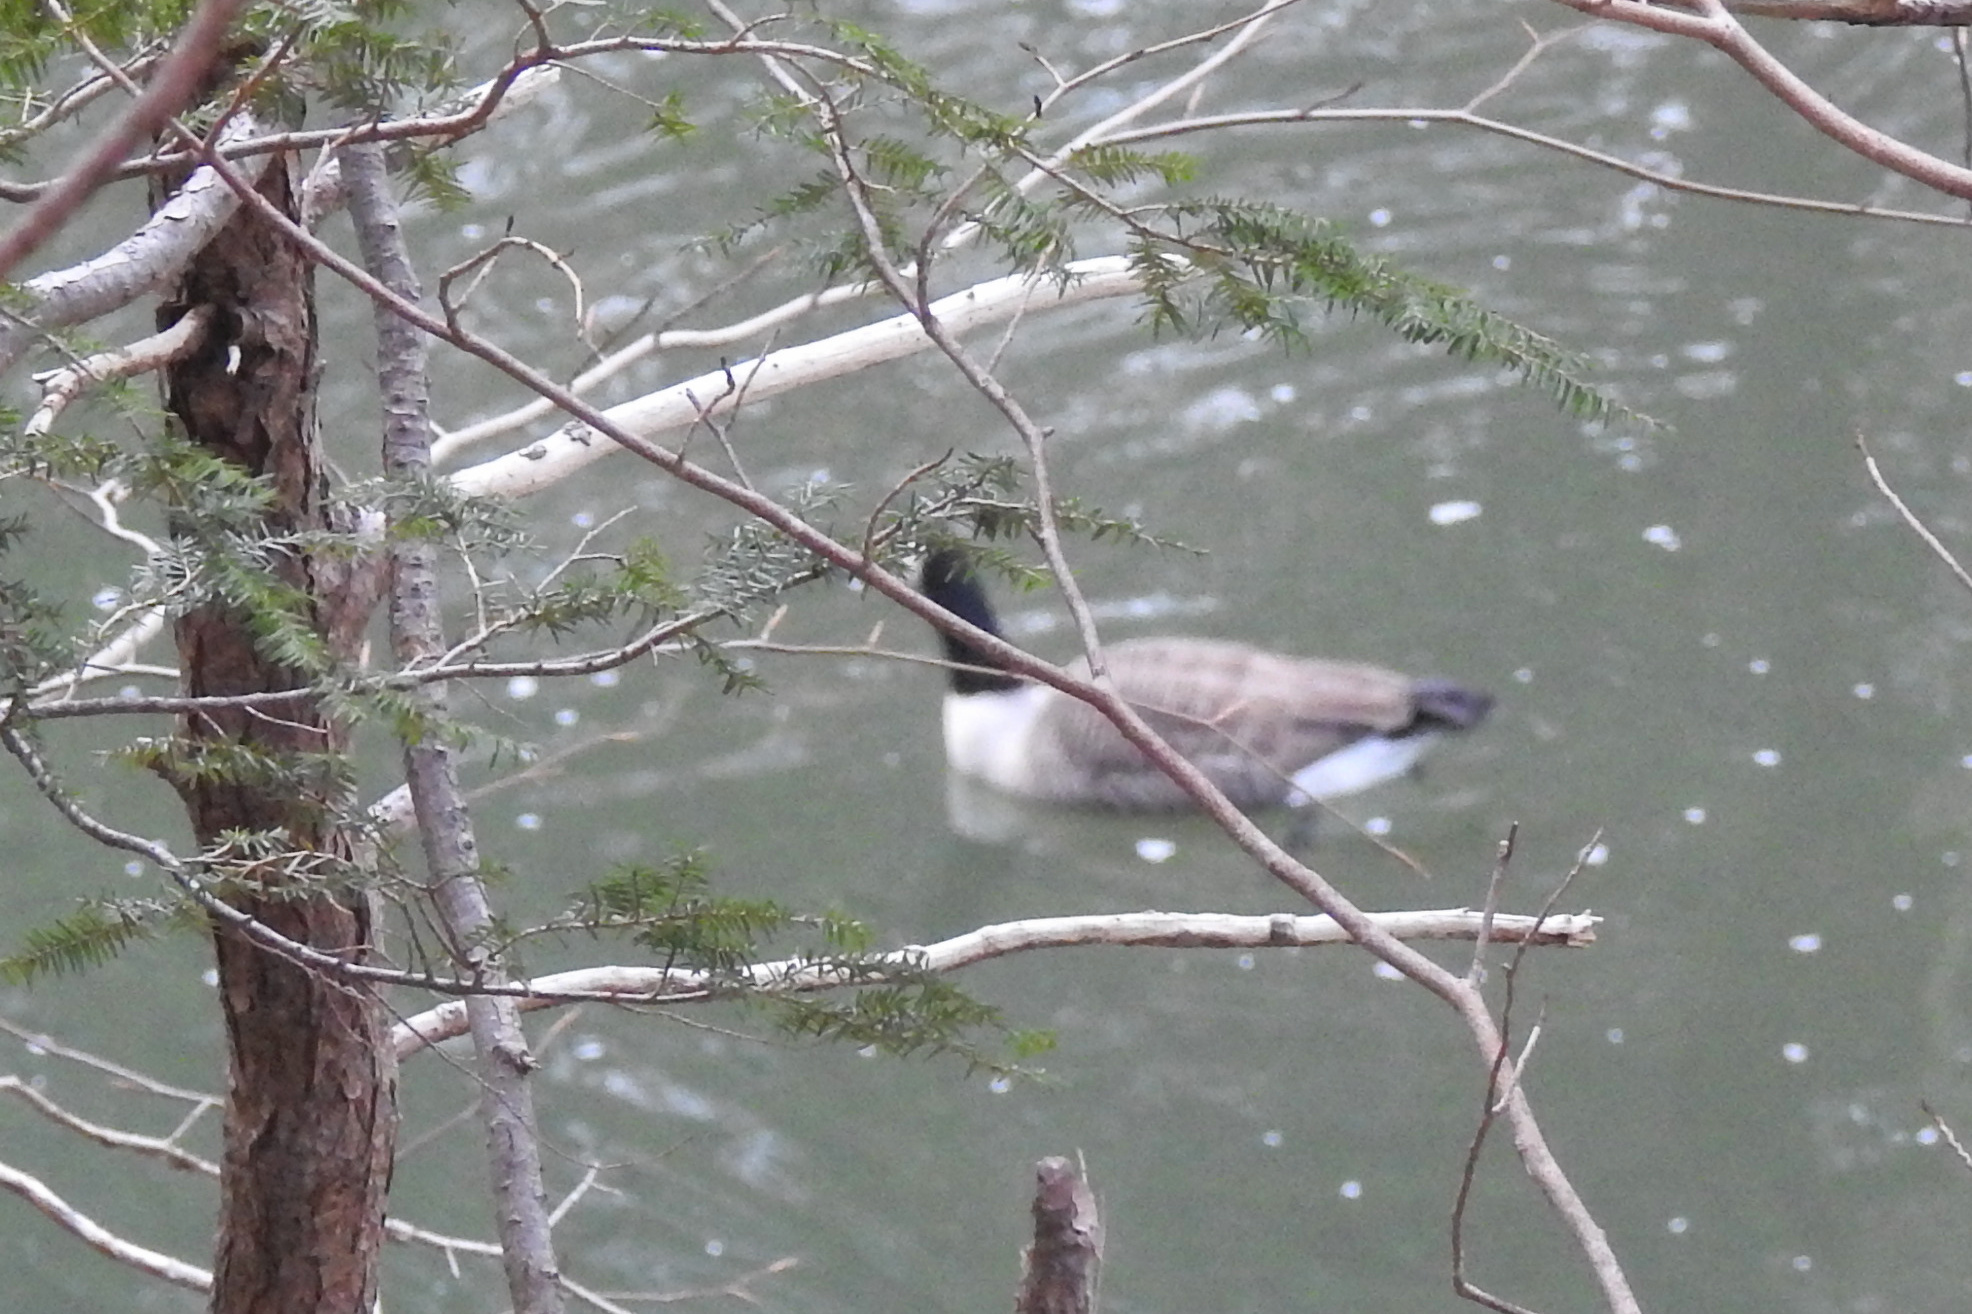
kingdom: Animalia
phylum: Chordata
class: Aves
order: Anseriformes
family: Anatidae
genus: Branta
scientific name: Branta canadensis
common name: Canada goose
